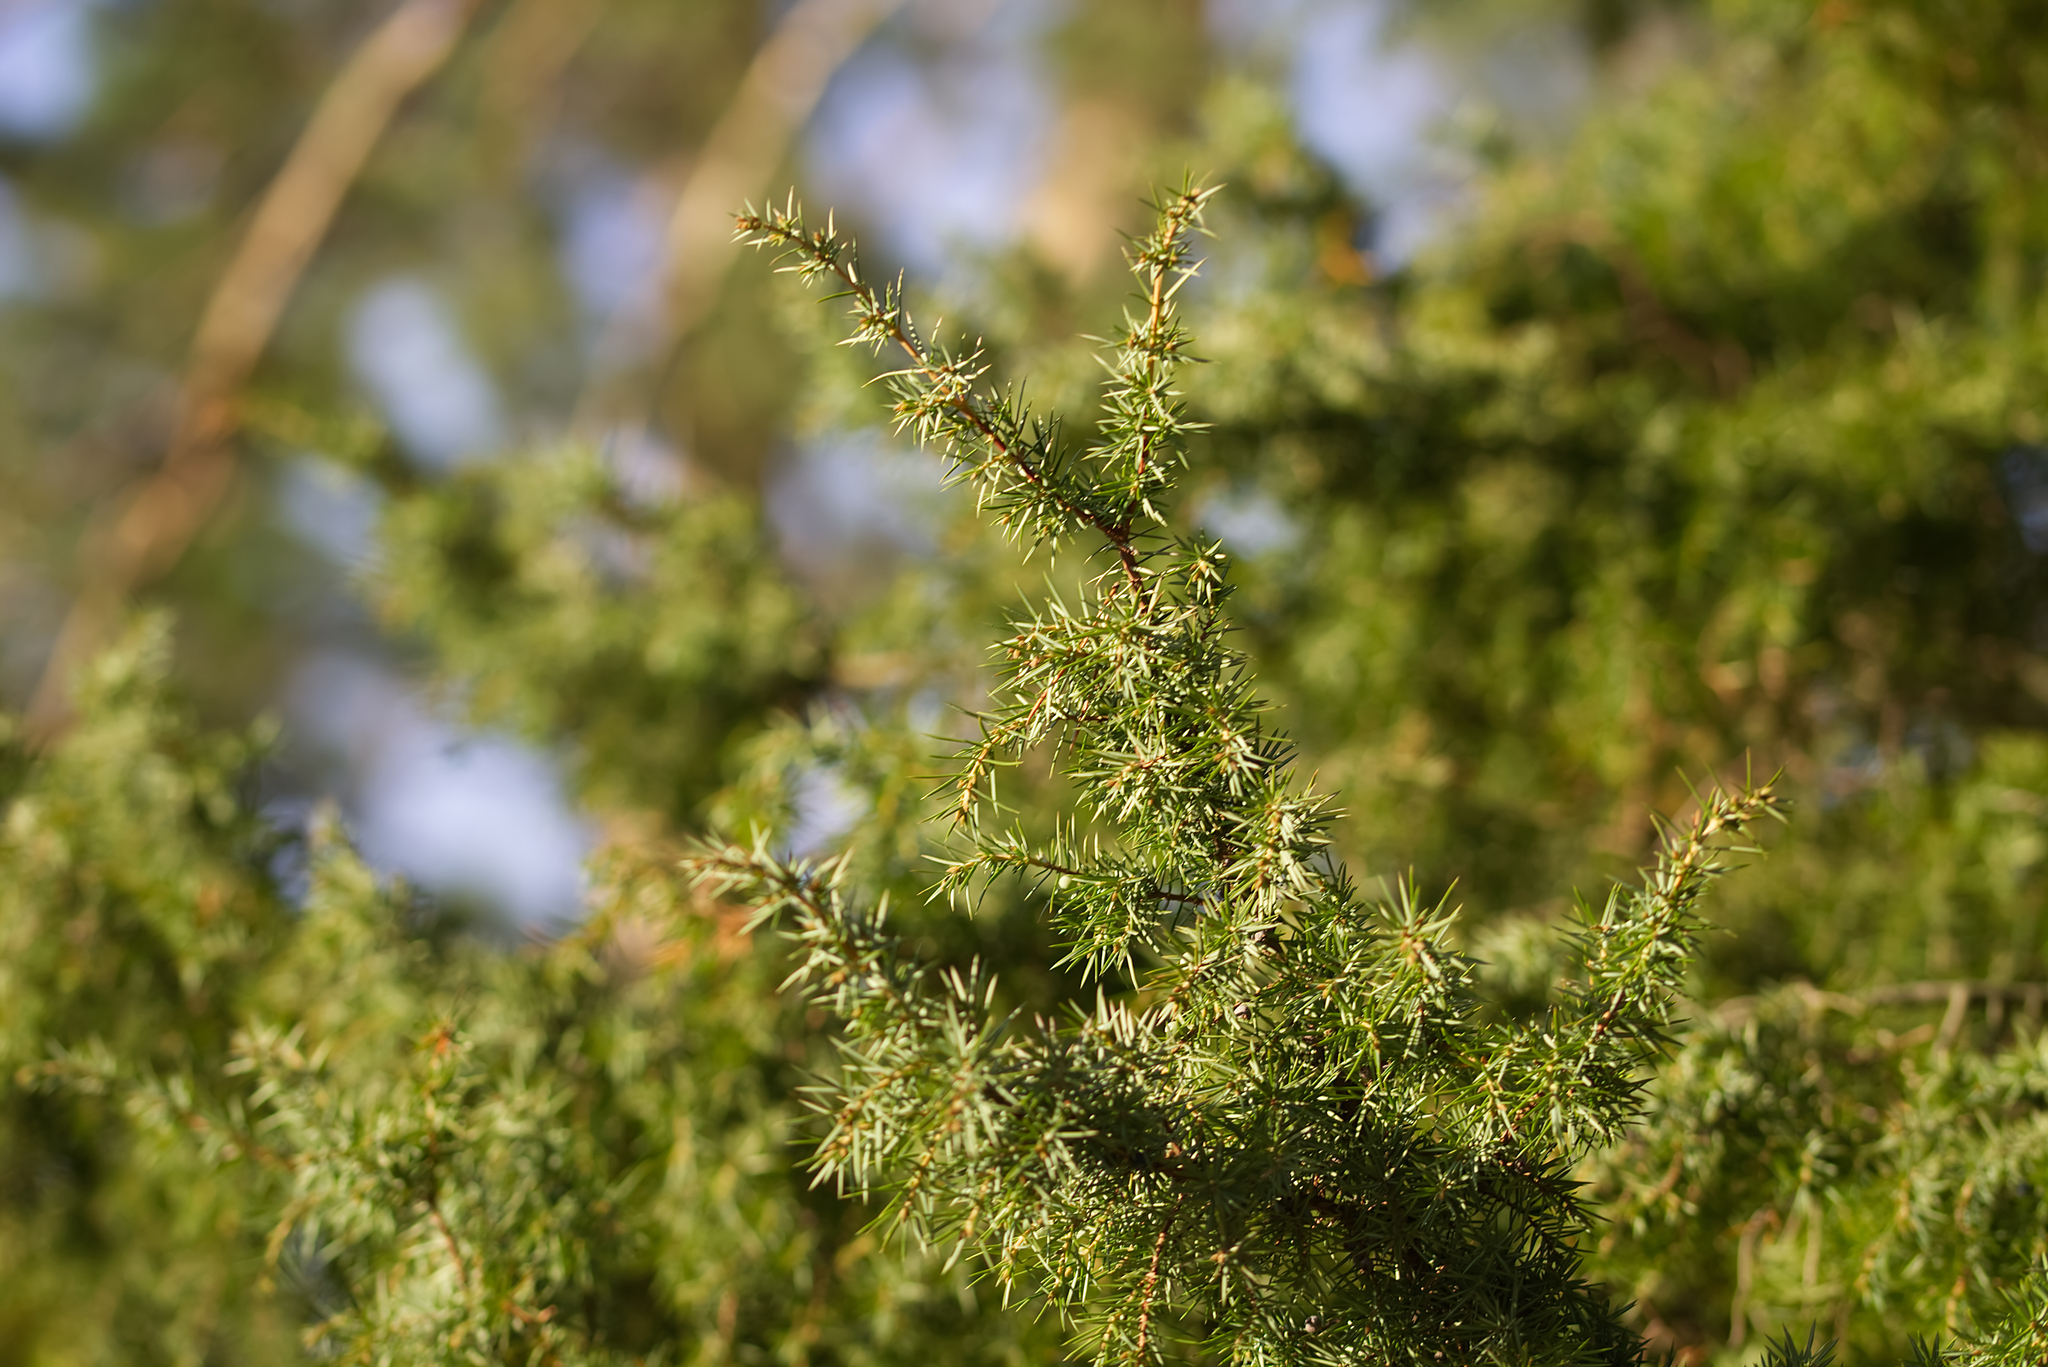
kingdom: Plantae
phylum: Tracheophyta
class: Pinopsida
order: Pinales
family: Cupressaceae
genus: Juniperus
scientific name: Juniperus communis
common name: Common juniper
